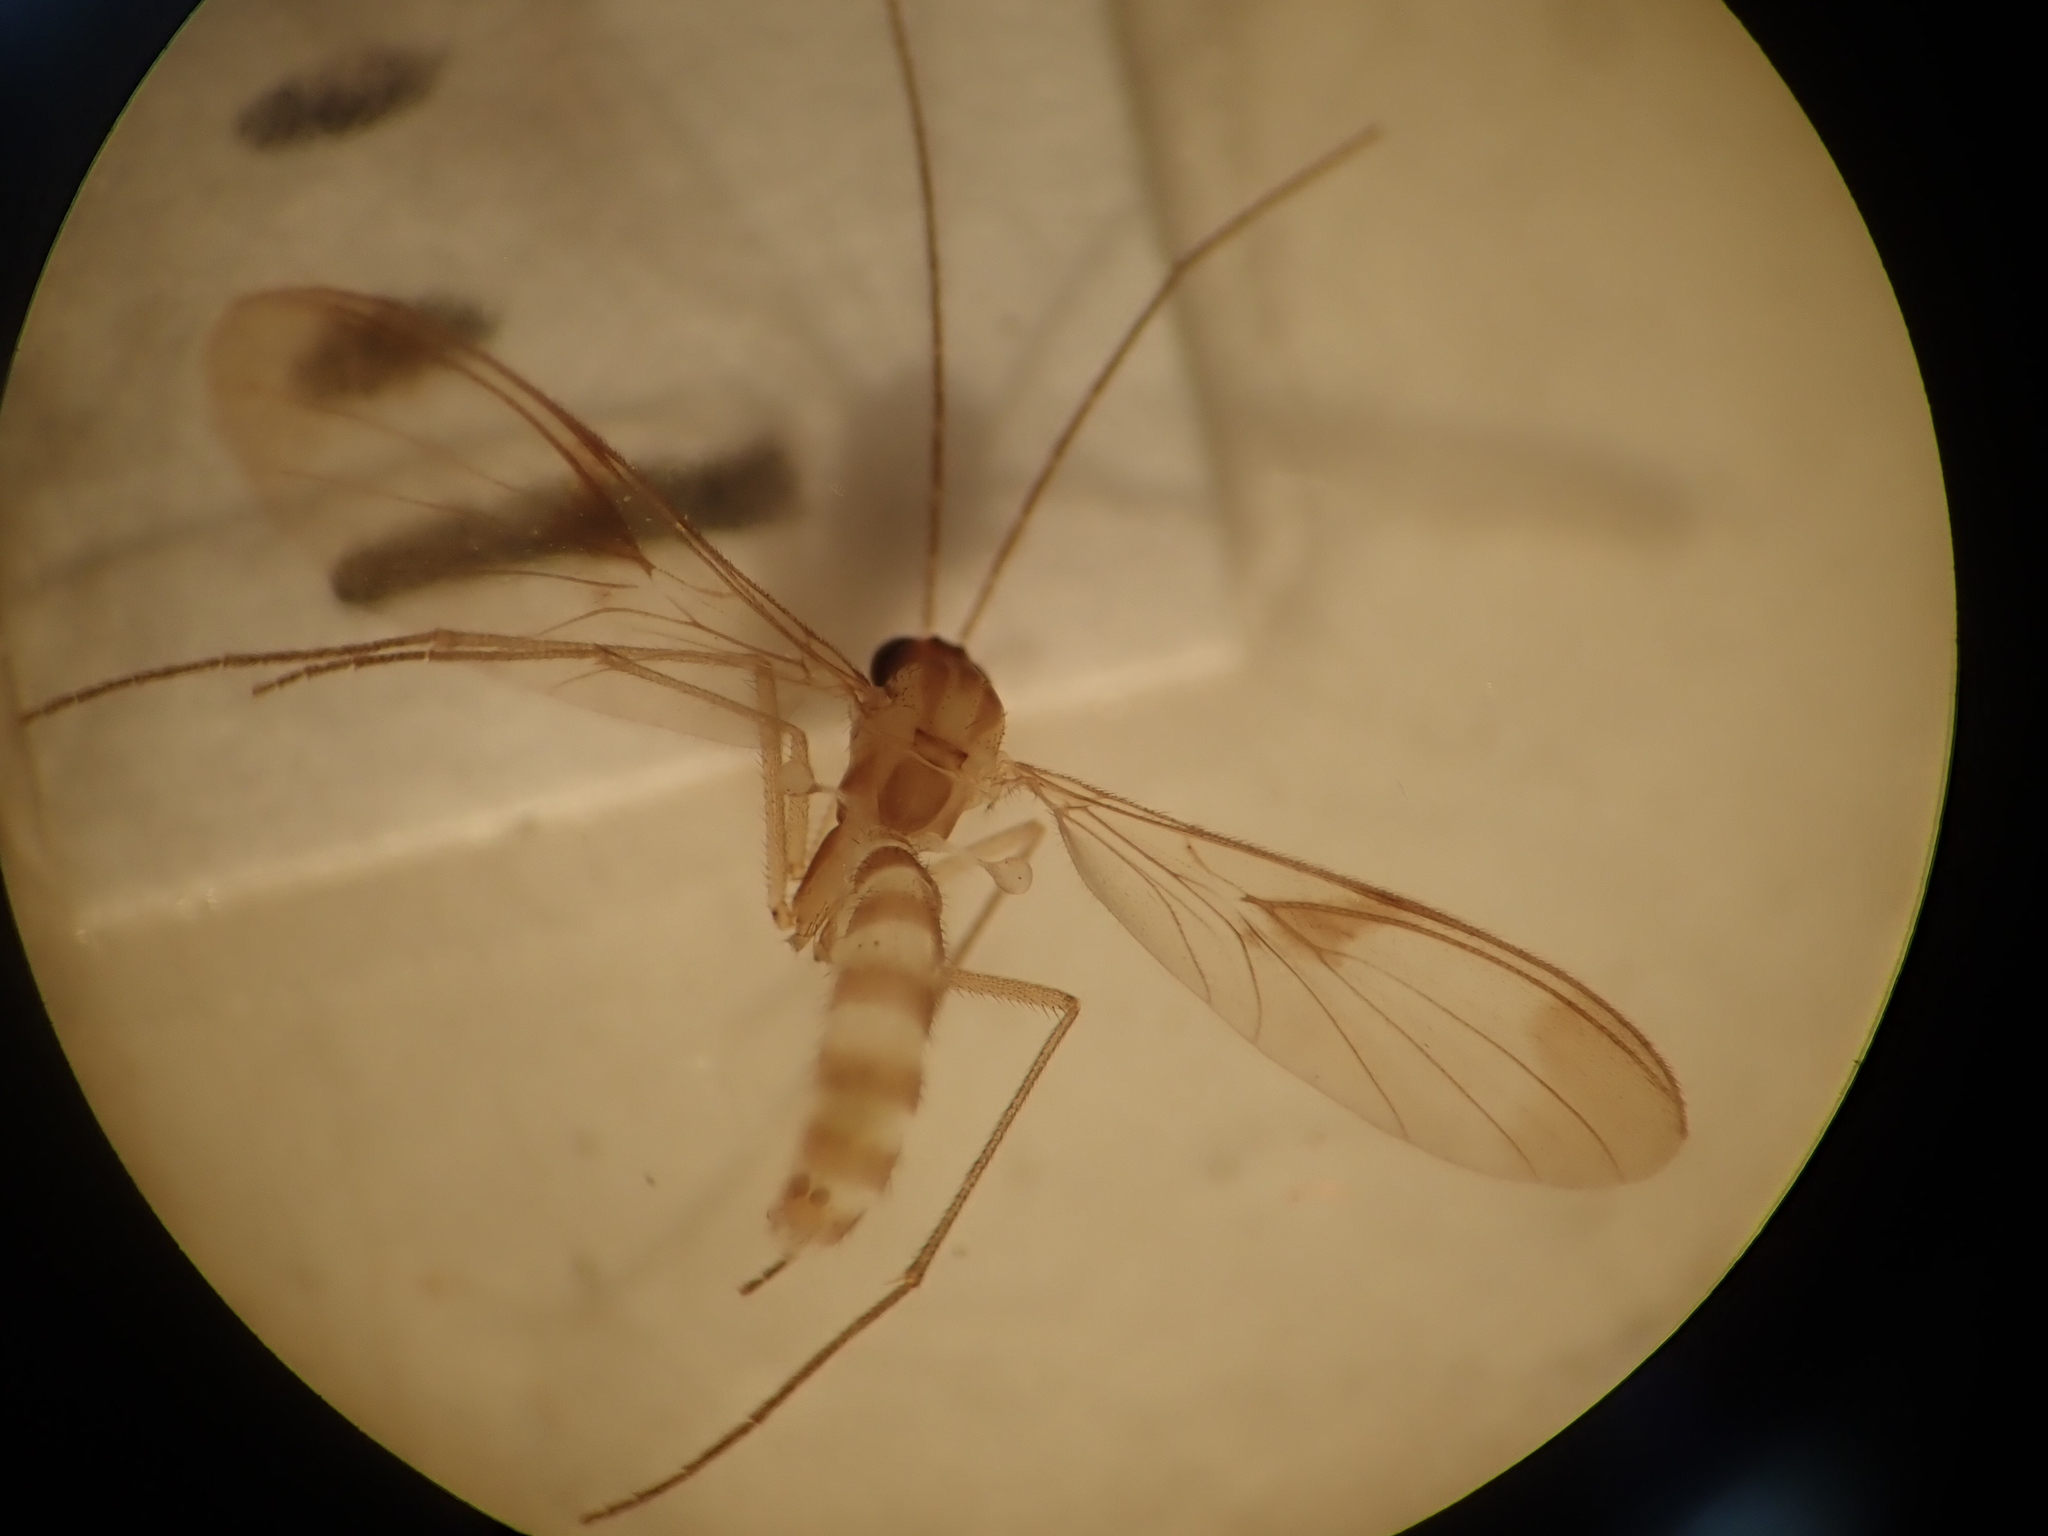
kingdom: Animalia
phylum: Arthropoda
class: Insecta
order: Diptera
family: Keroplatidae
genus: Macrocera
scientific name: Macrocera scoparia
